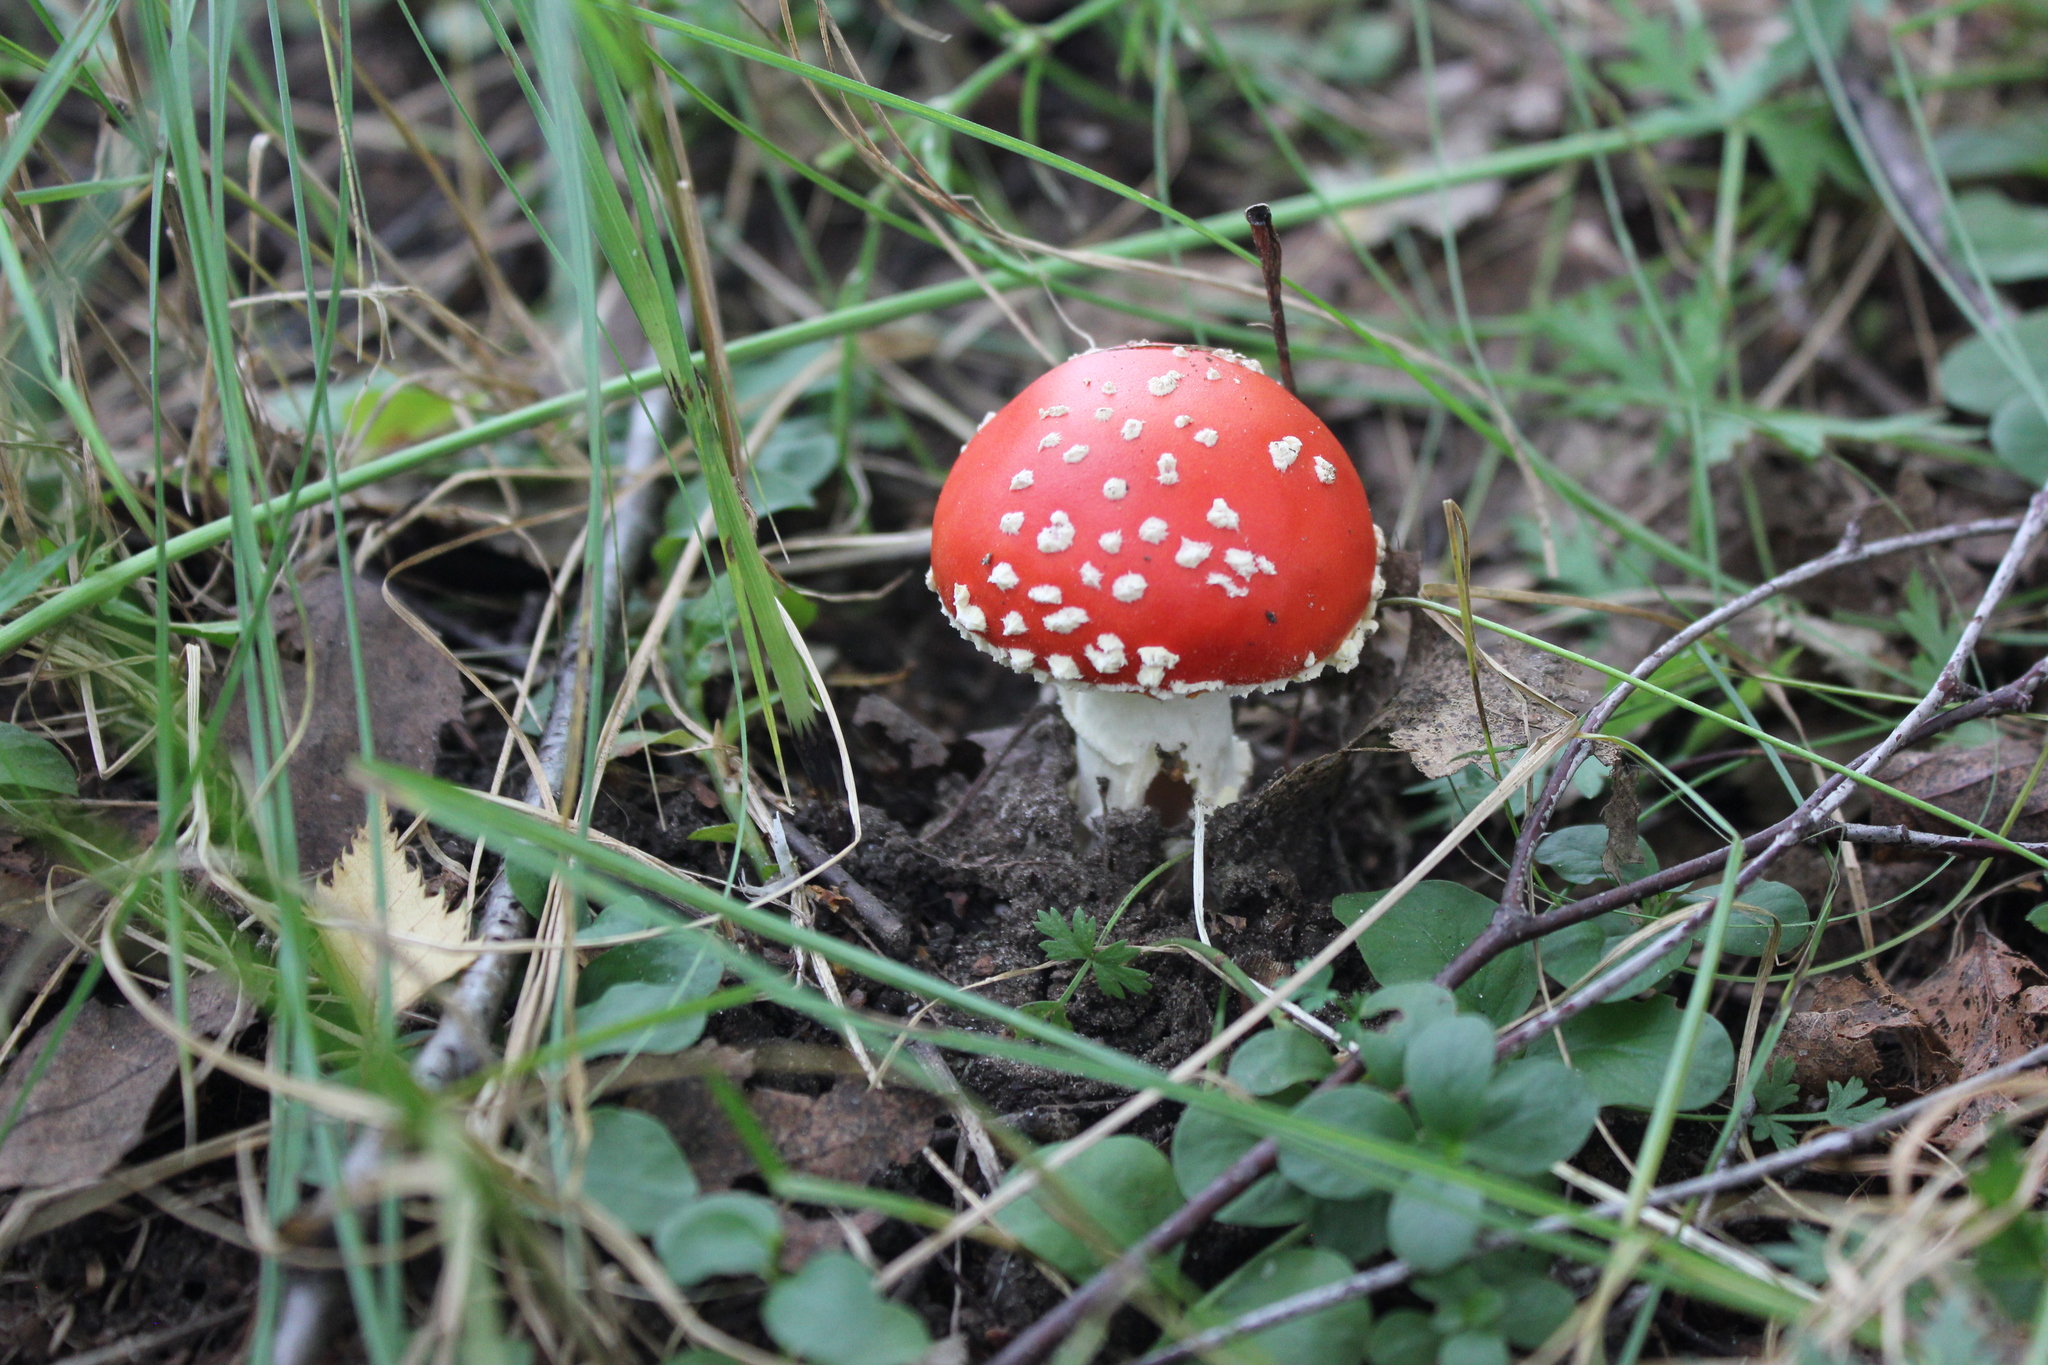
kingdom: Fungi
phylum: Basidiomycota
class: Agaricomycetes
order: Agaricales
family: Amanitaceae
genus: Amanita
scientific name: Amanita muscaria
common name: Fly agaric
